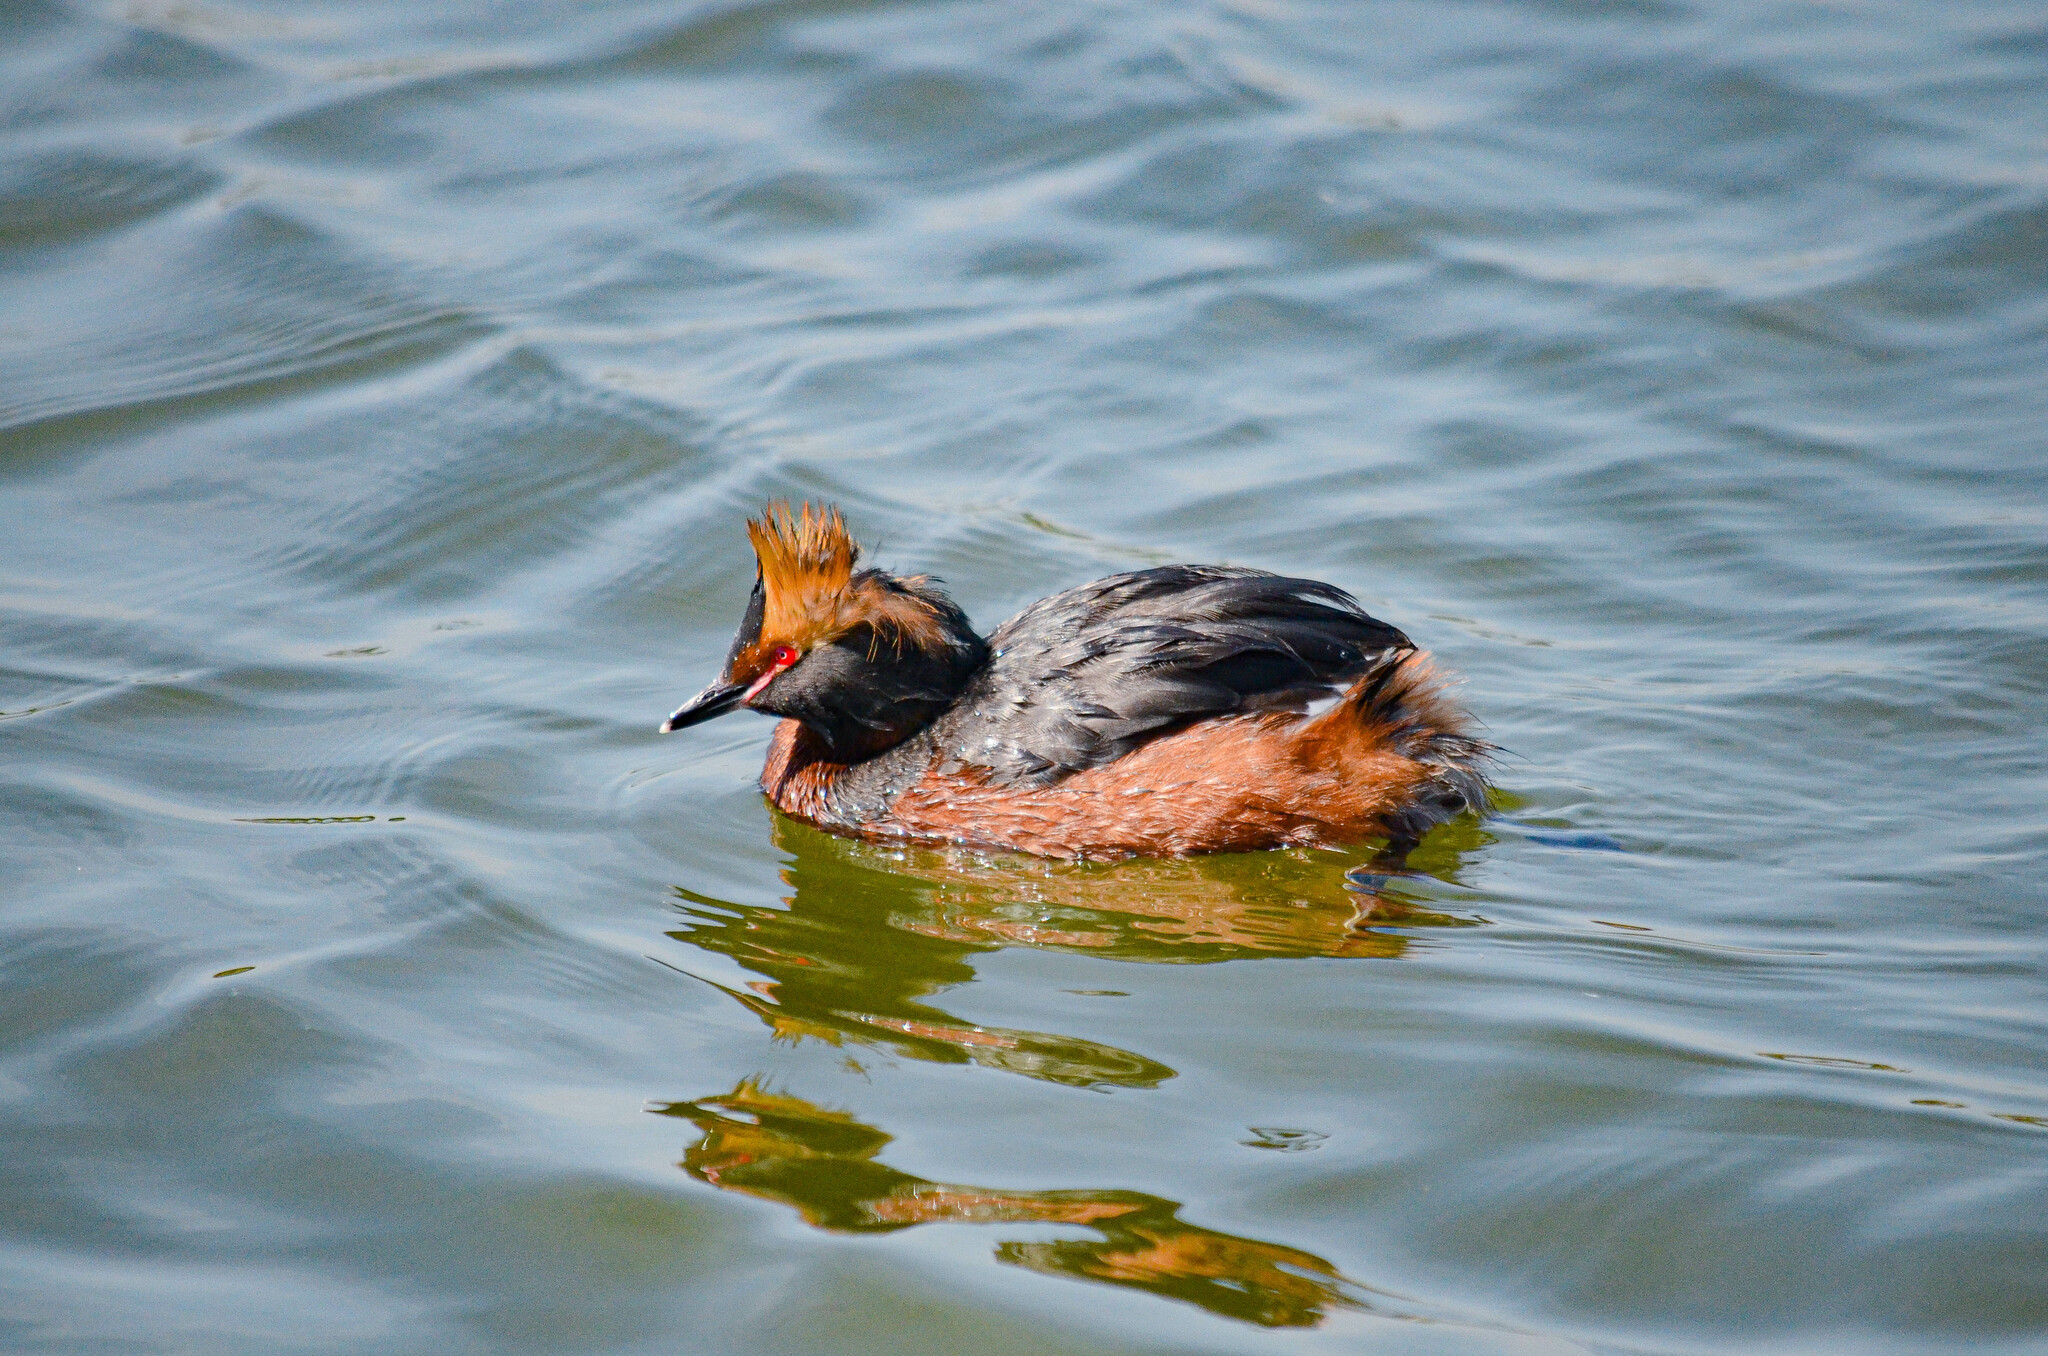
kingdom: Animalia
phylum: Chordata
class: Aves
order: Podicipediformes
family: Podicipedidae
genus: Podiceps
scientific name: Podiceps auritus
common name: Horned grebe
